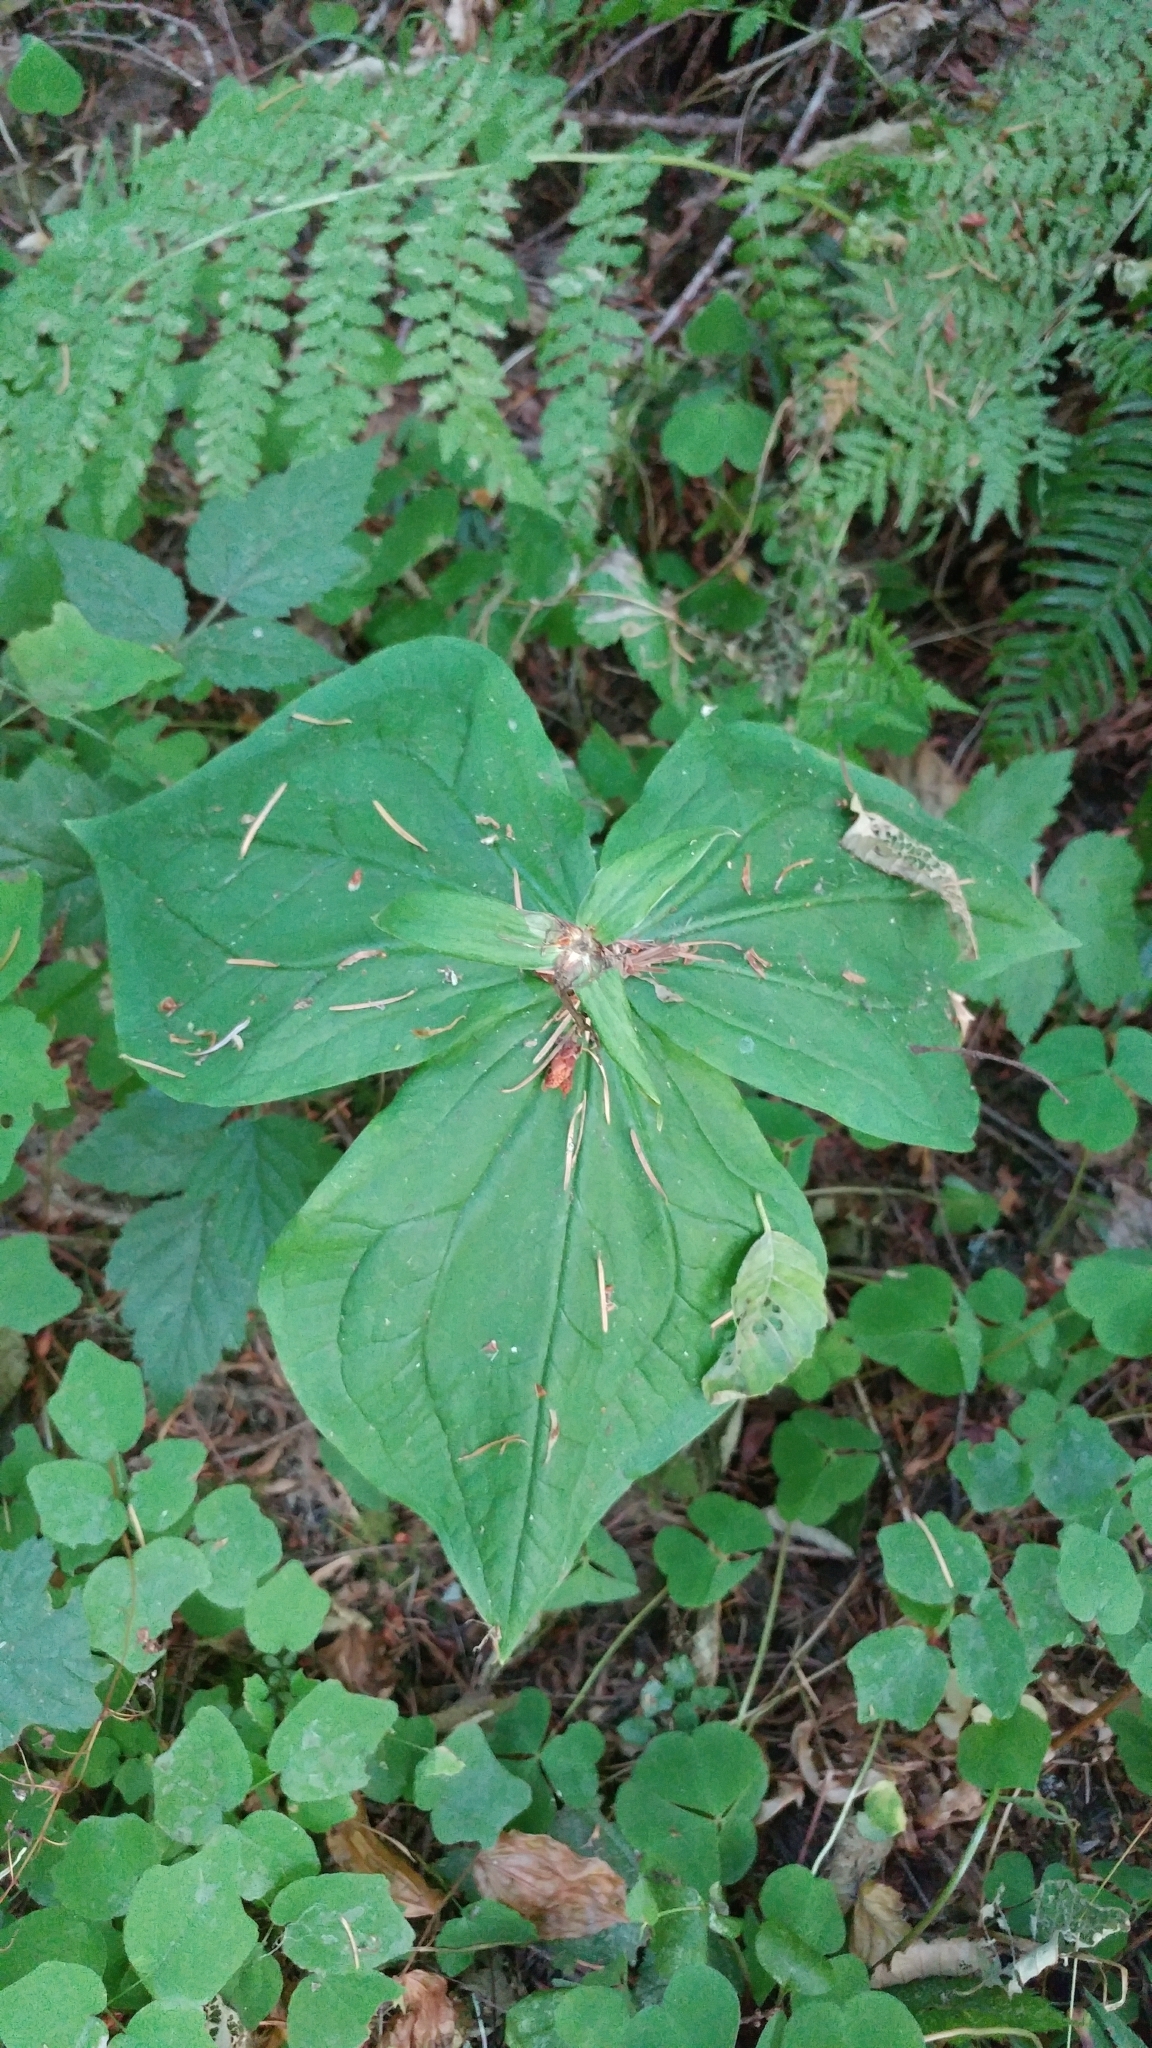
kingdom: Plantae
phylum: Tracheophyta
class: Liliopsida
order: Liliales
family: Melanthiaceae
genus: Trillium
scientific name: Trillium ovatum
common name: Pacific trillium
